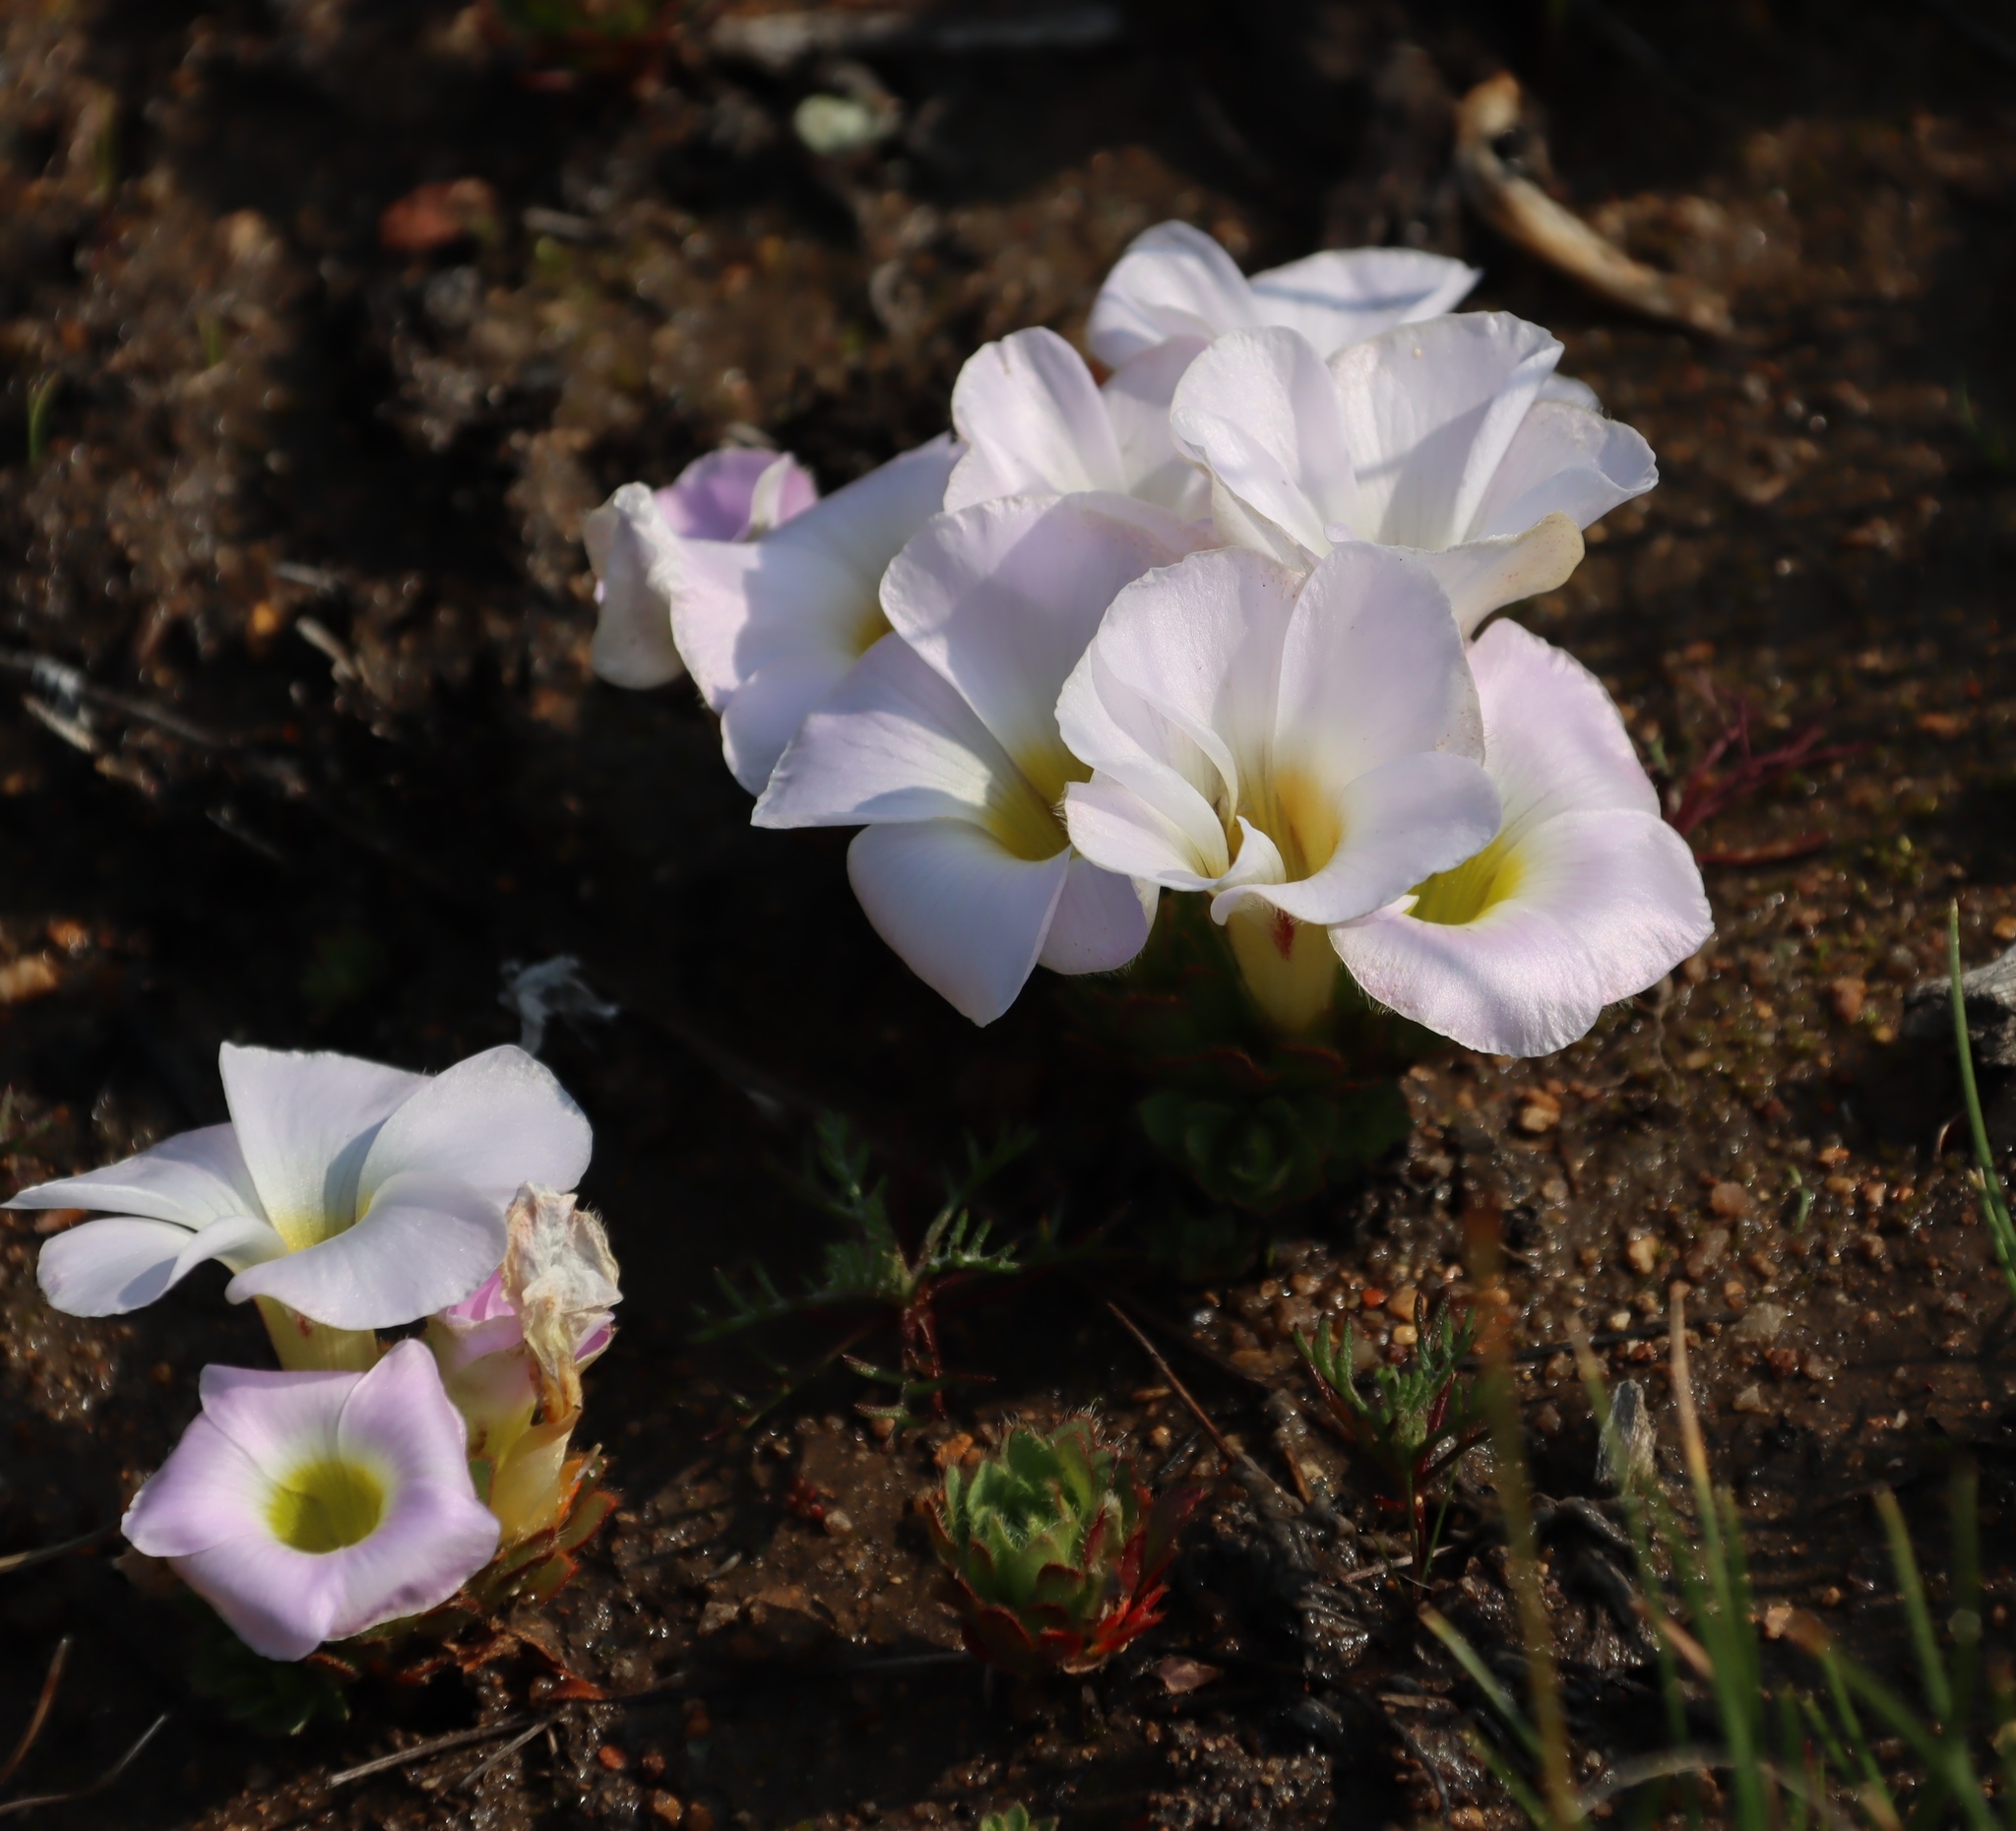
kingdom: Plantae
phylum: Tracheophyta
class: Magnoliopsida
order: Oxalidales
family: Oxalidaceae
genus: Oxalis
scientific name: Oxalis adenodes
